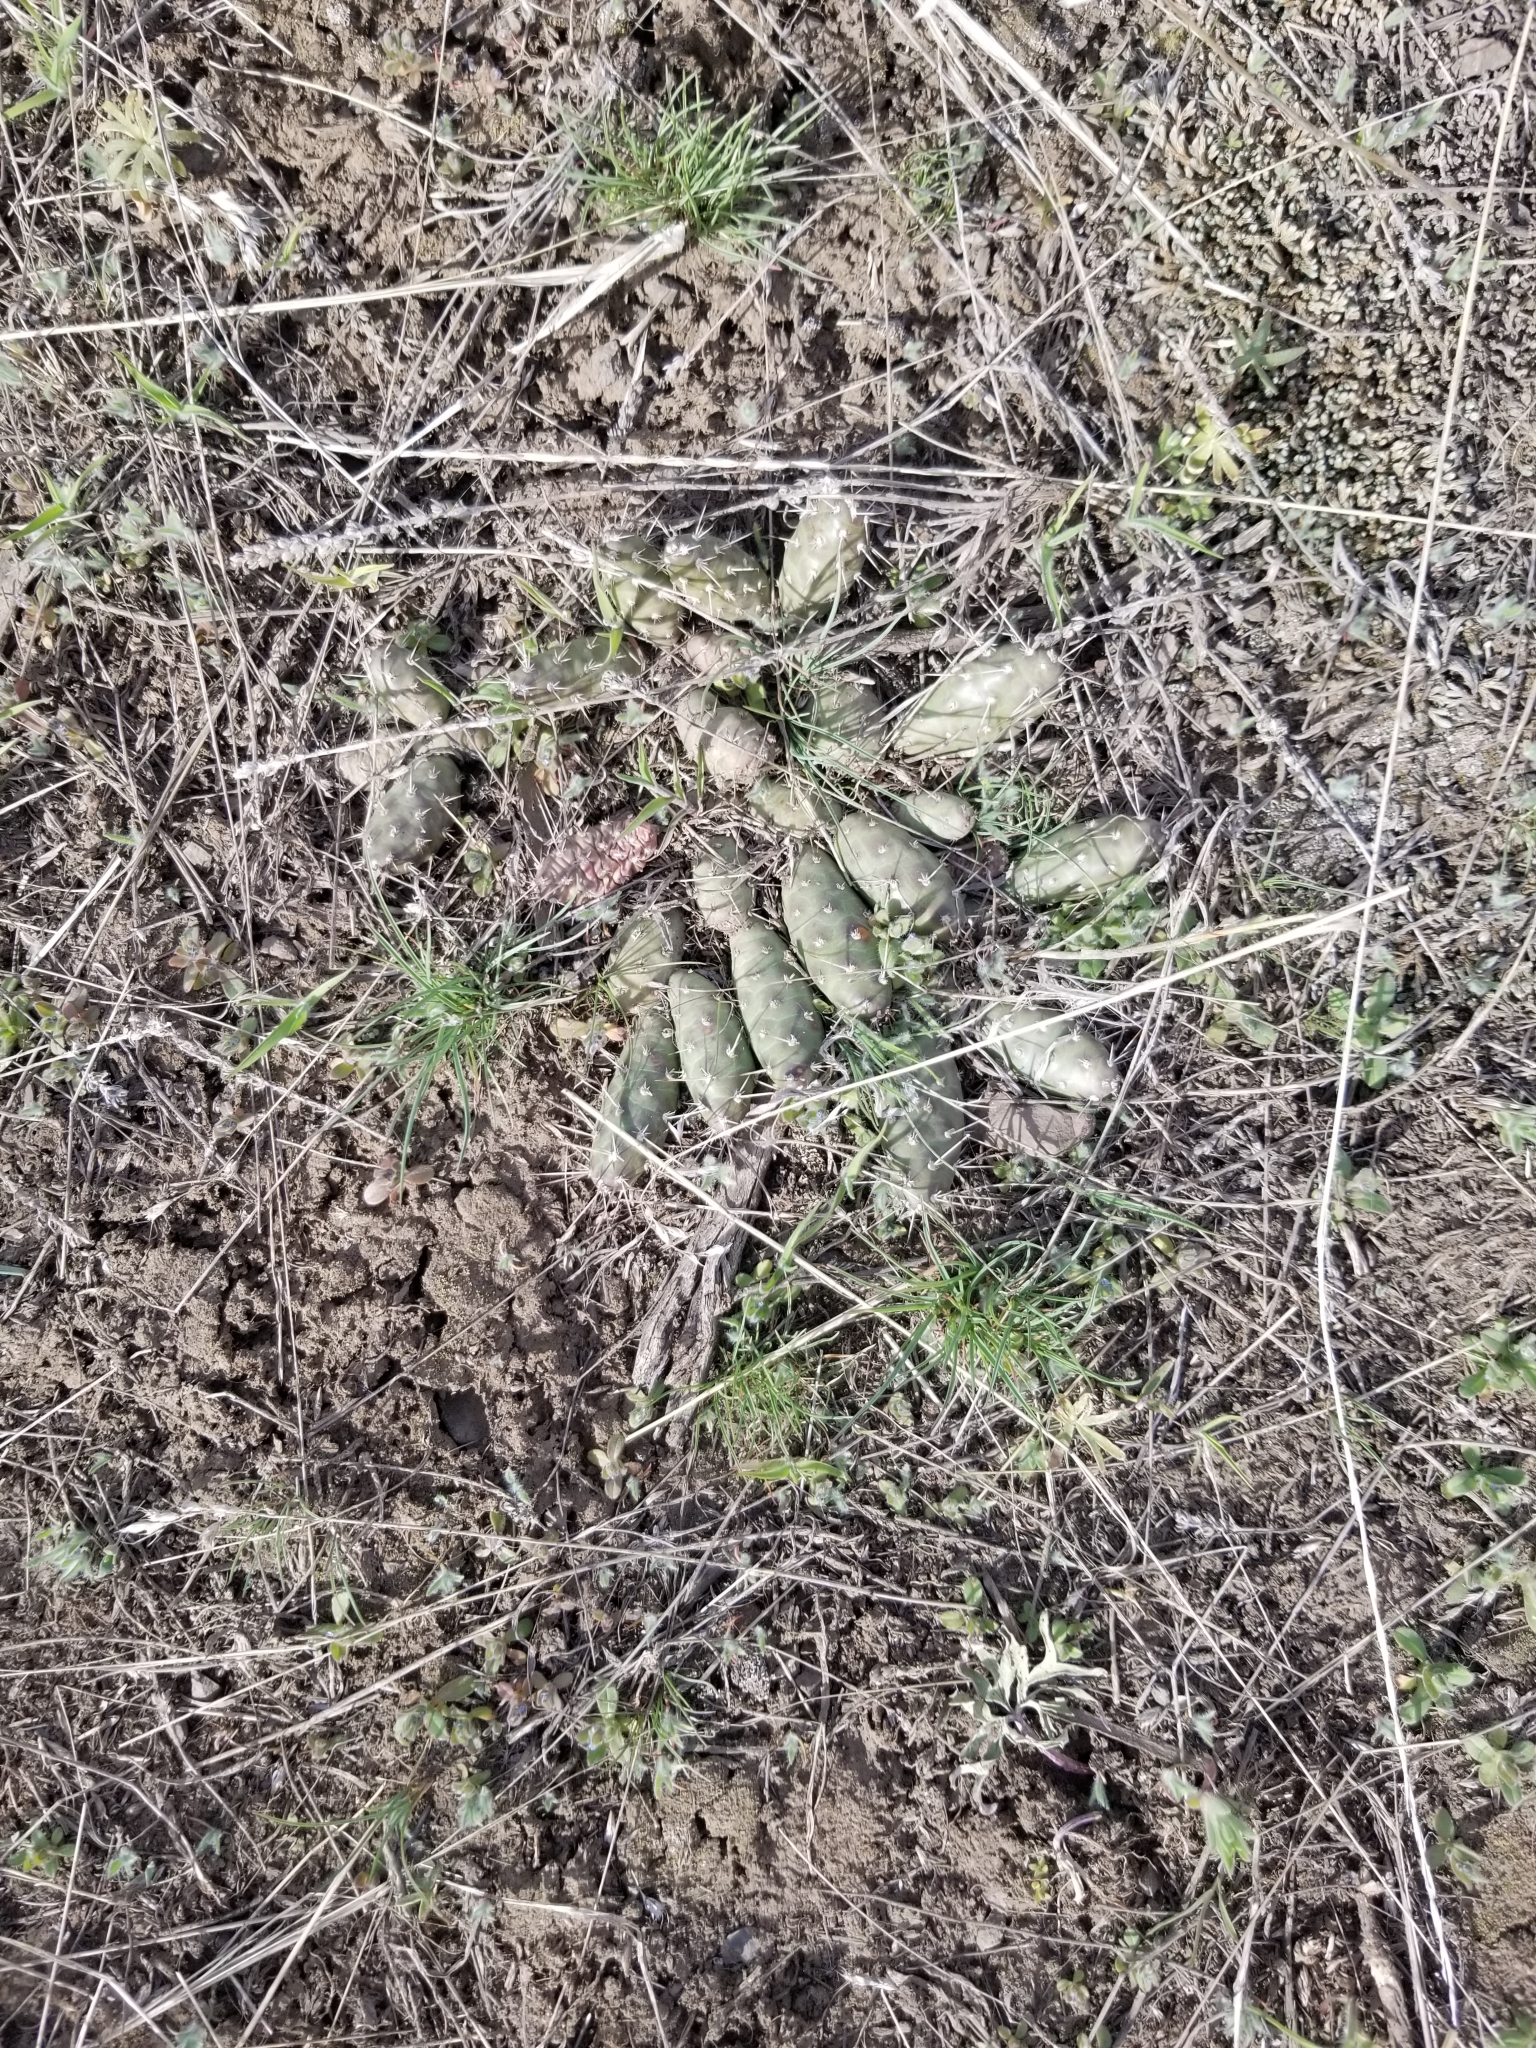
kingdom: Plantae
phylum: Tracheophyta
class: Magnoliopsida
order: Caryophyllales
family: Cactaceae
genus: Opuntia
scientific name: Opuntia fragilis
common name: Brittle cactus
